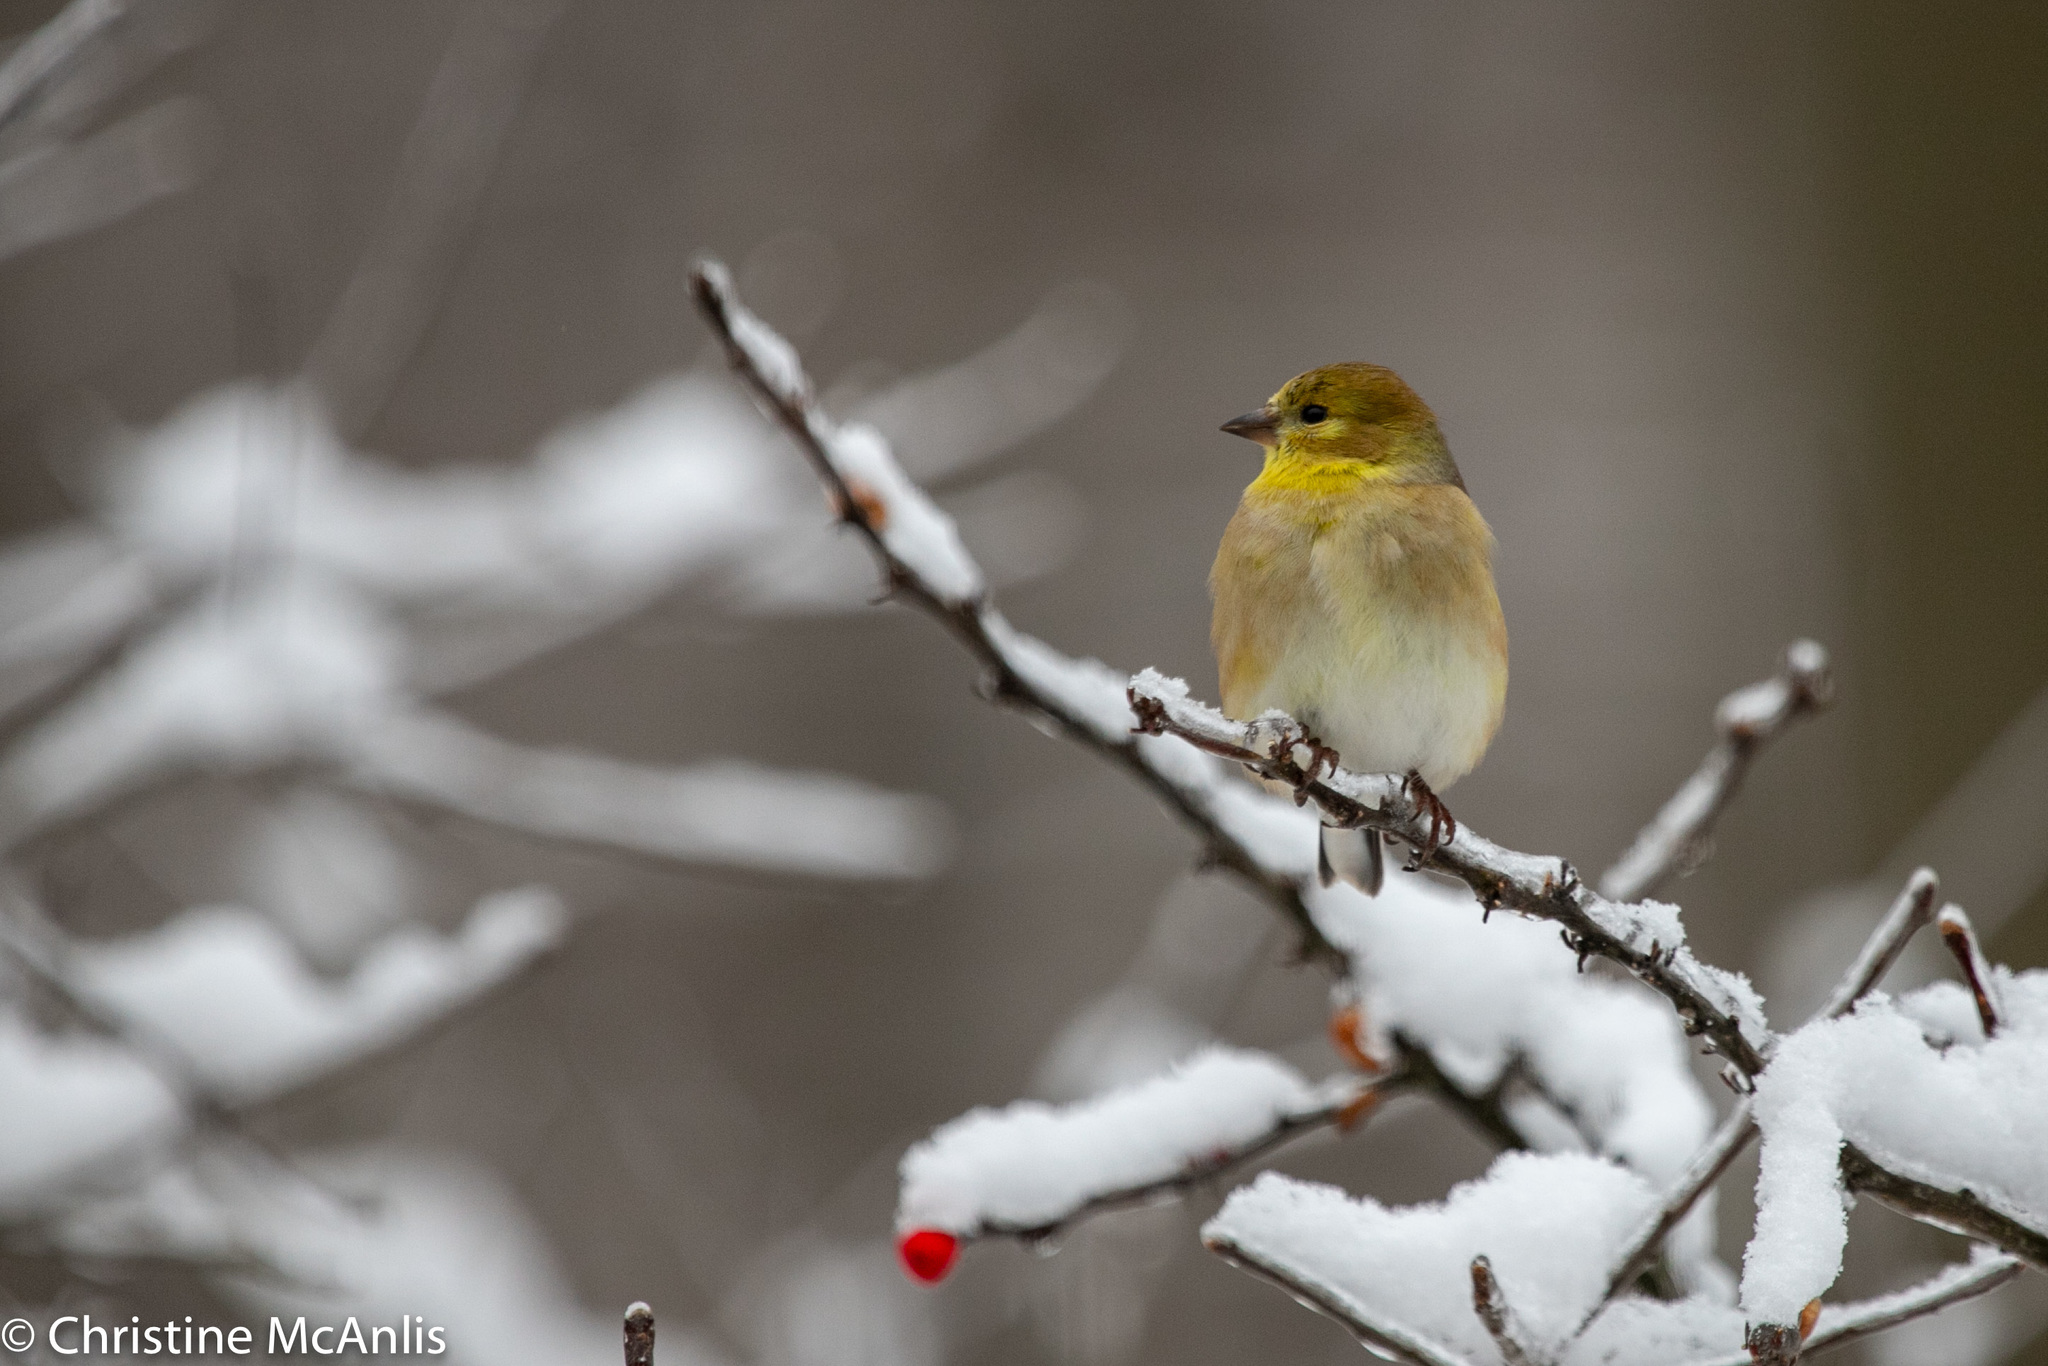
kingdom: Animalia
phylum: Chordata
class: Aves
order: Passeriformes
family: Fringillidae
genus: Spinus
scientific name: Spinus tristis
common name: American goldfinch
